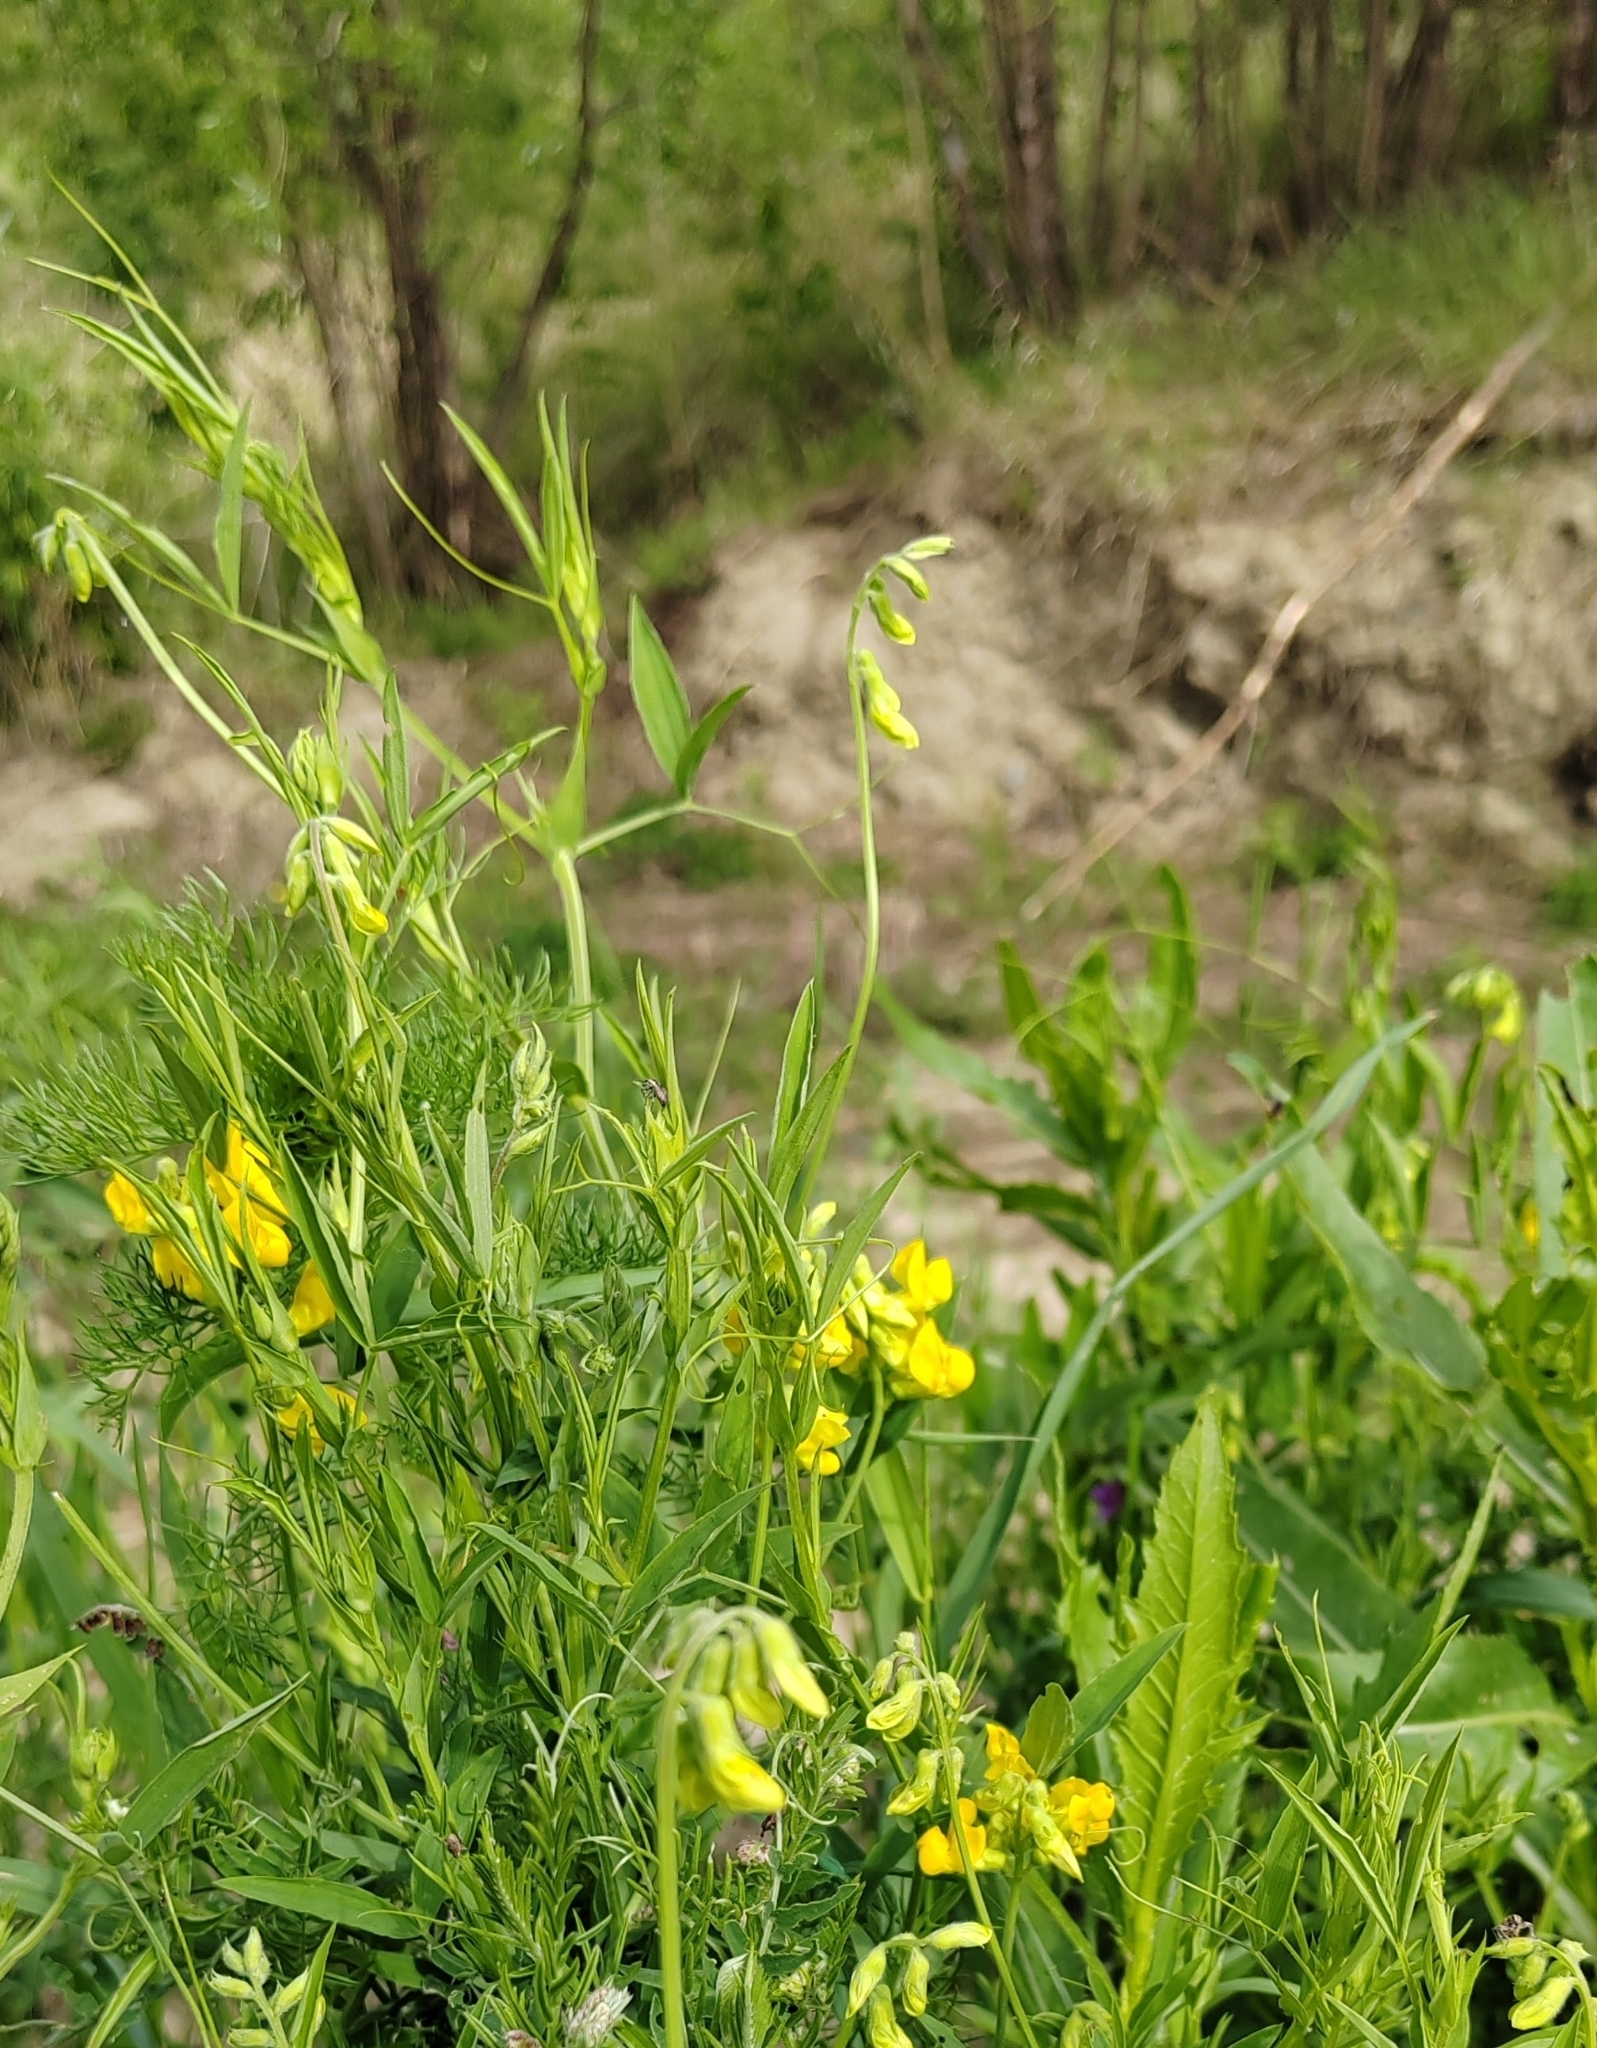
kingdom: Plantae
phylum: Tracheophyta
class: Magnoliopsida
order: Fabales
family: Fabaceae
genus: Lathyrus
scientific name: Lathyrus pratensis
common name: Meadow vetchling
